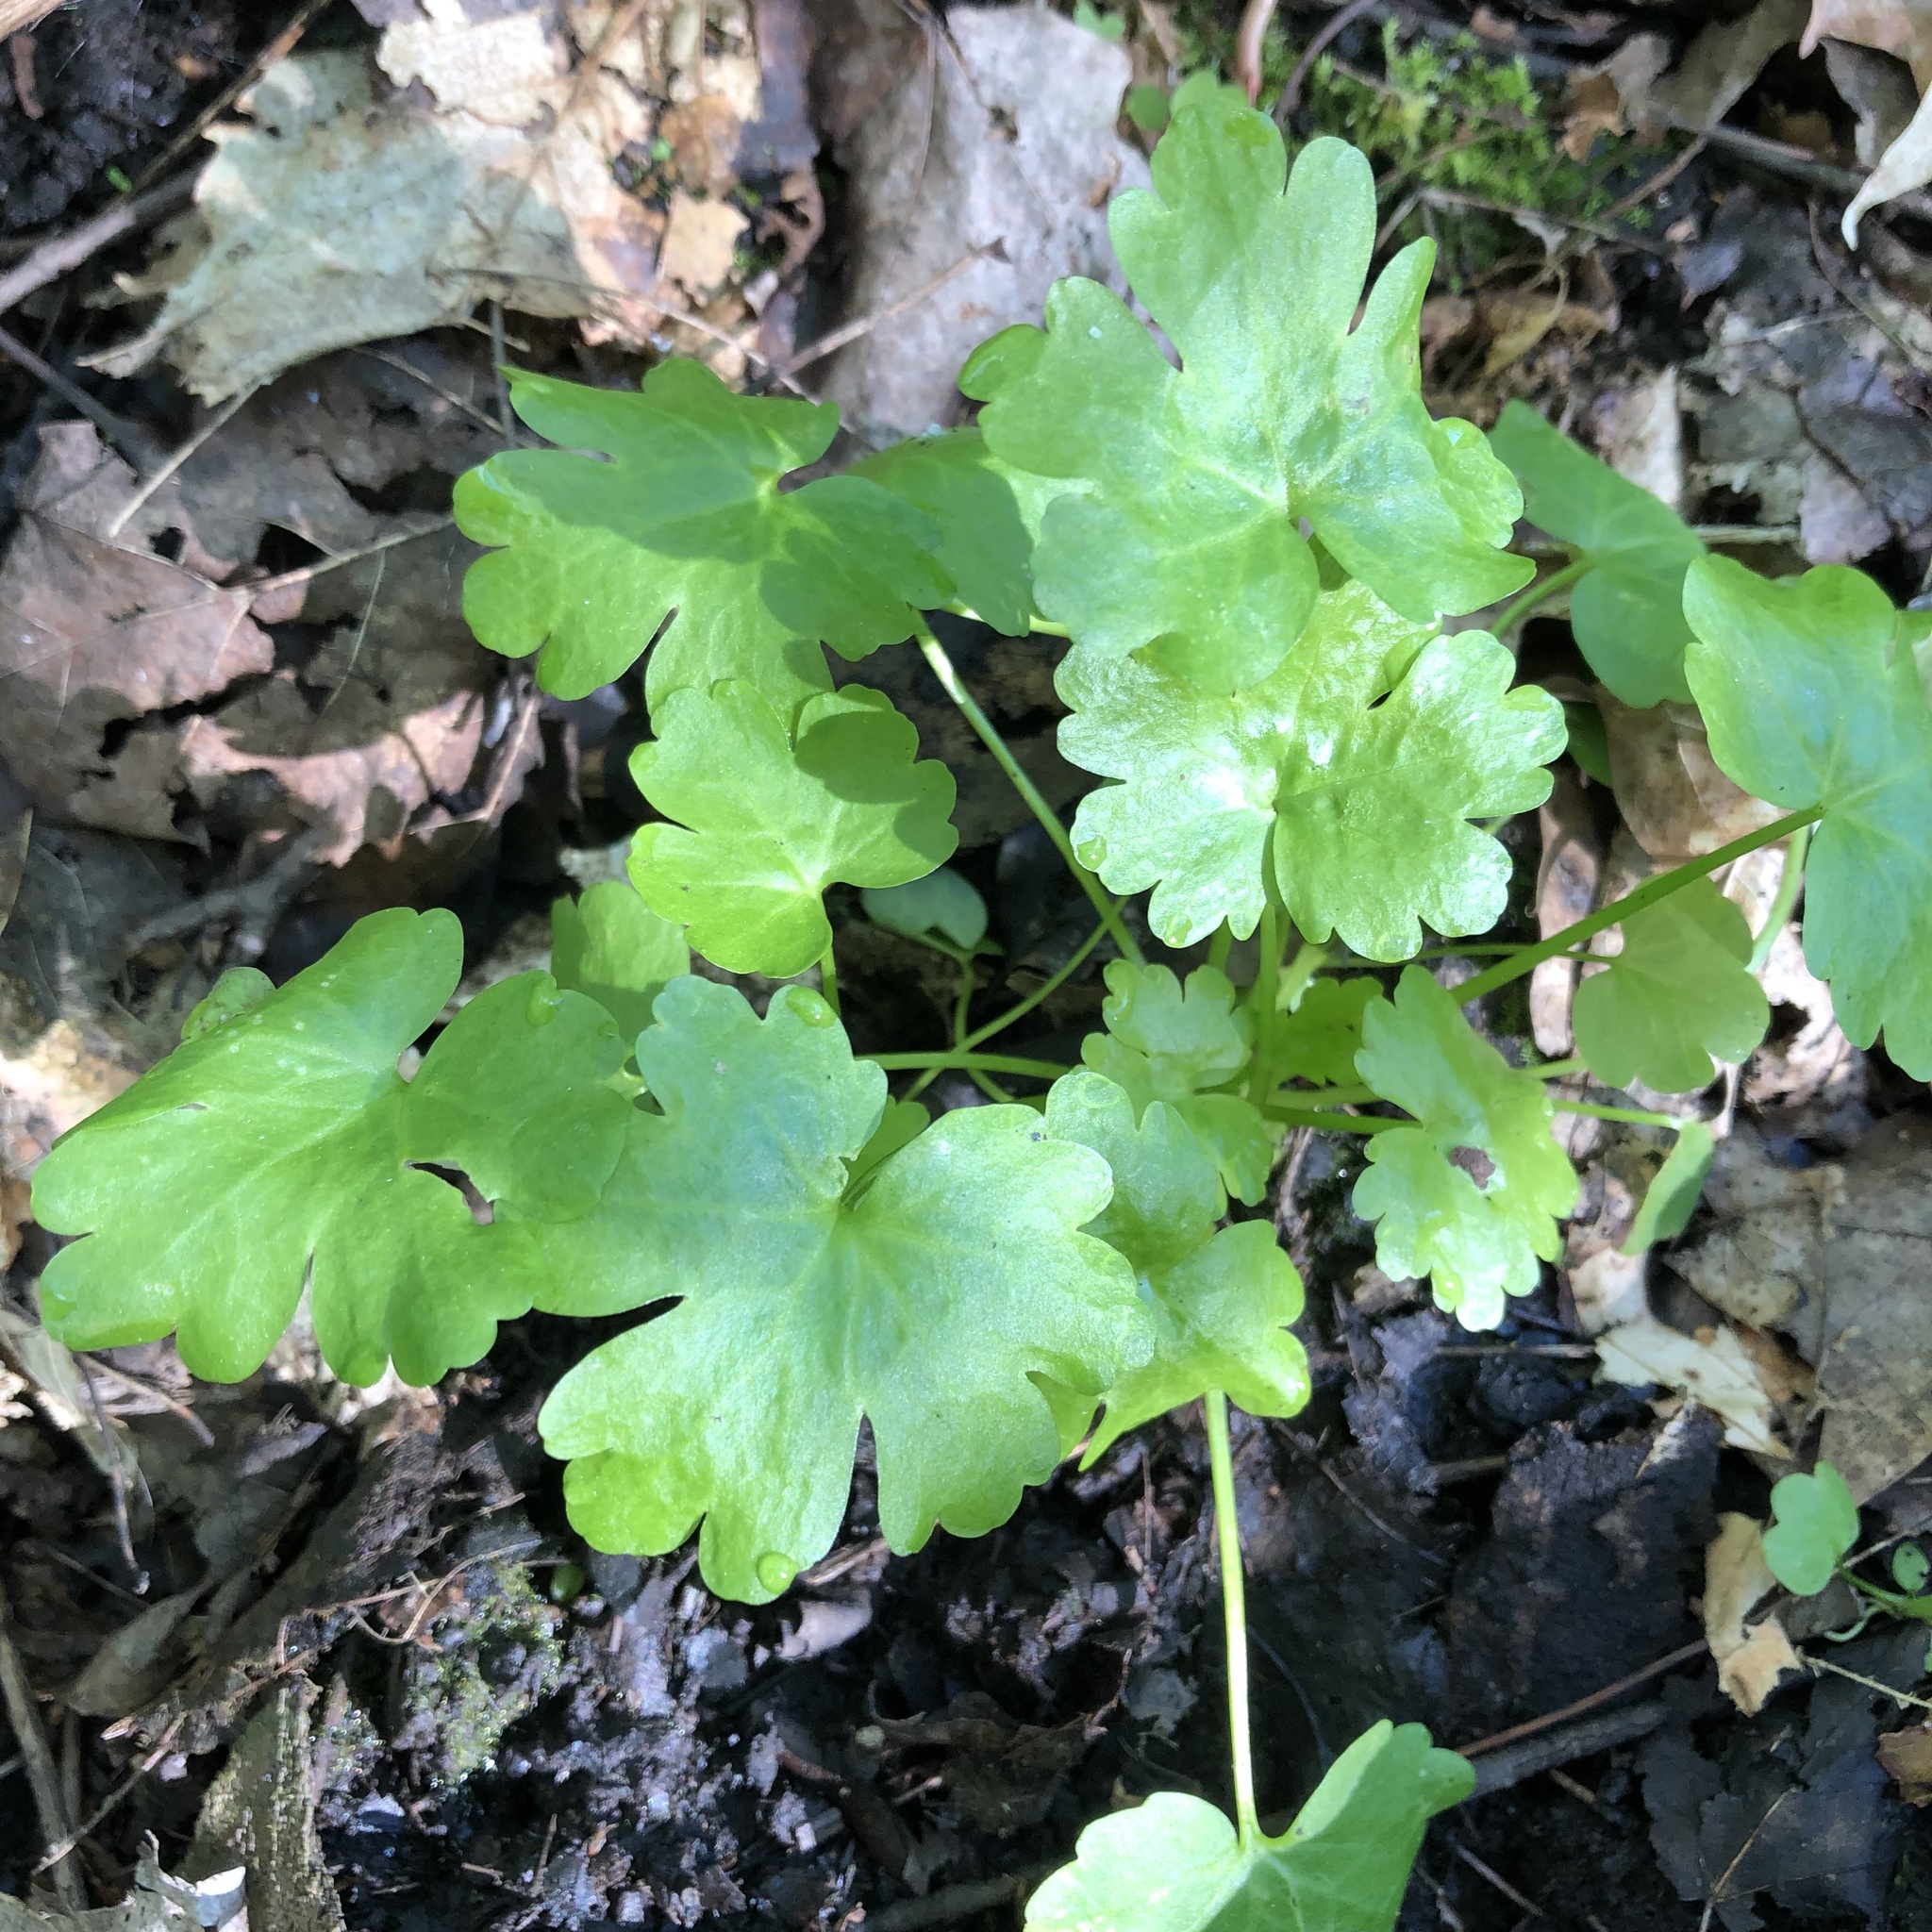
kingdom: Plantae
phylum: Tracheophyta
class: Magnoliopsida
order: Ranunculales
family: Ranunculaceae
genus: Ranunculus
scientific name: Ranunculus sceleratus
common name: Celery-leaved buttercup
